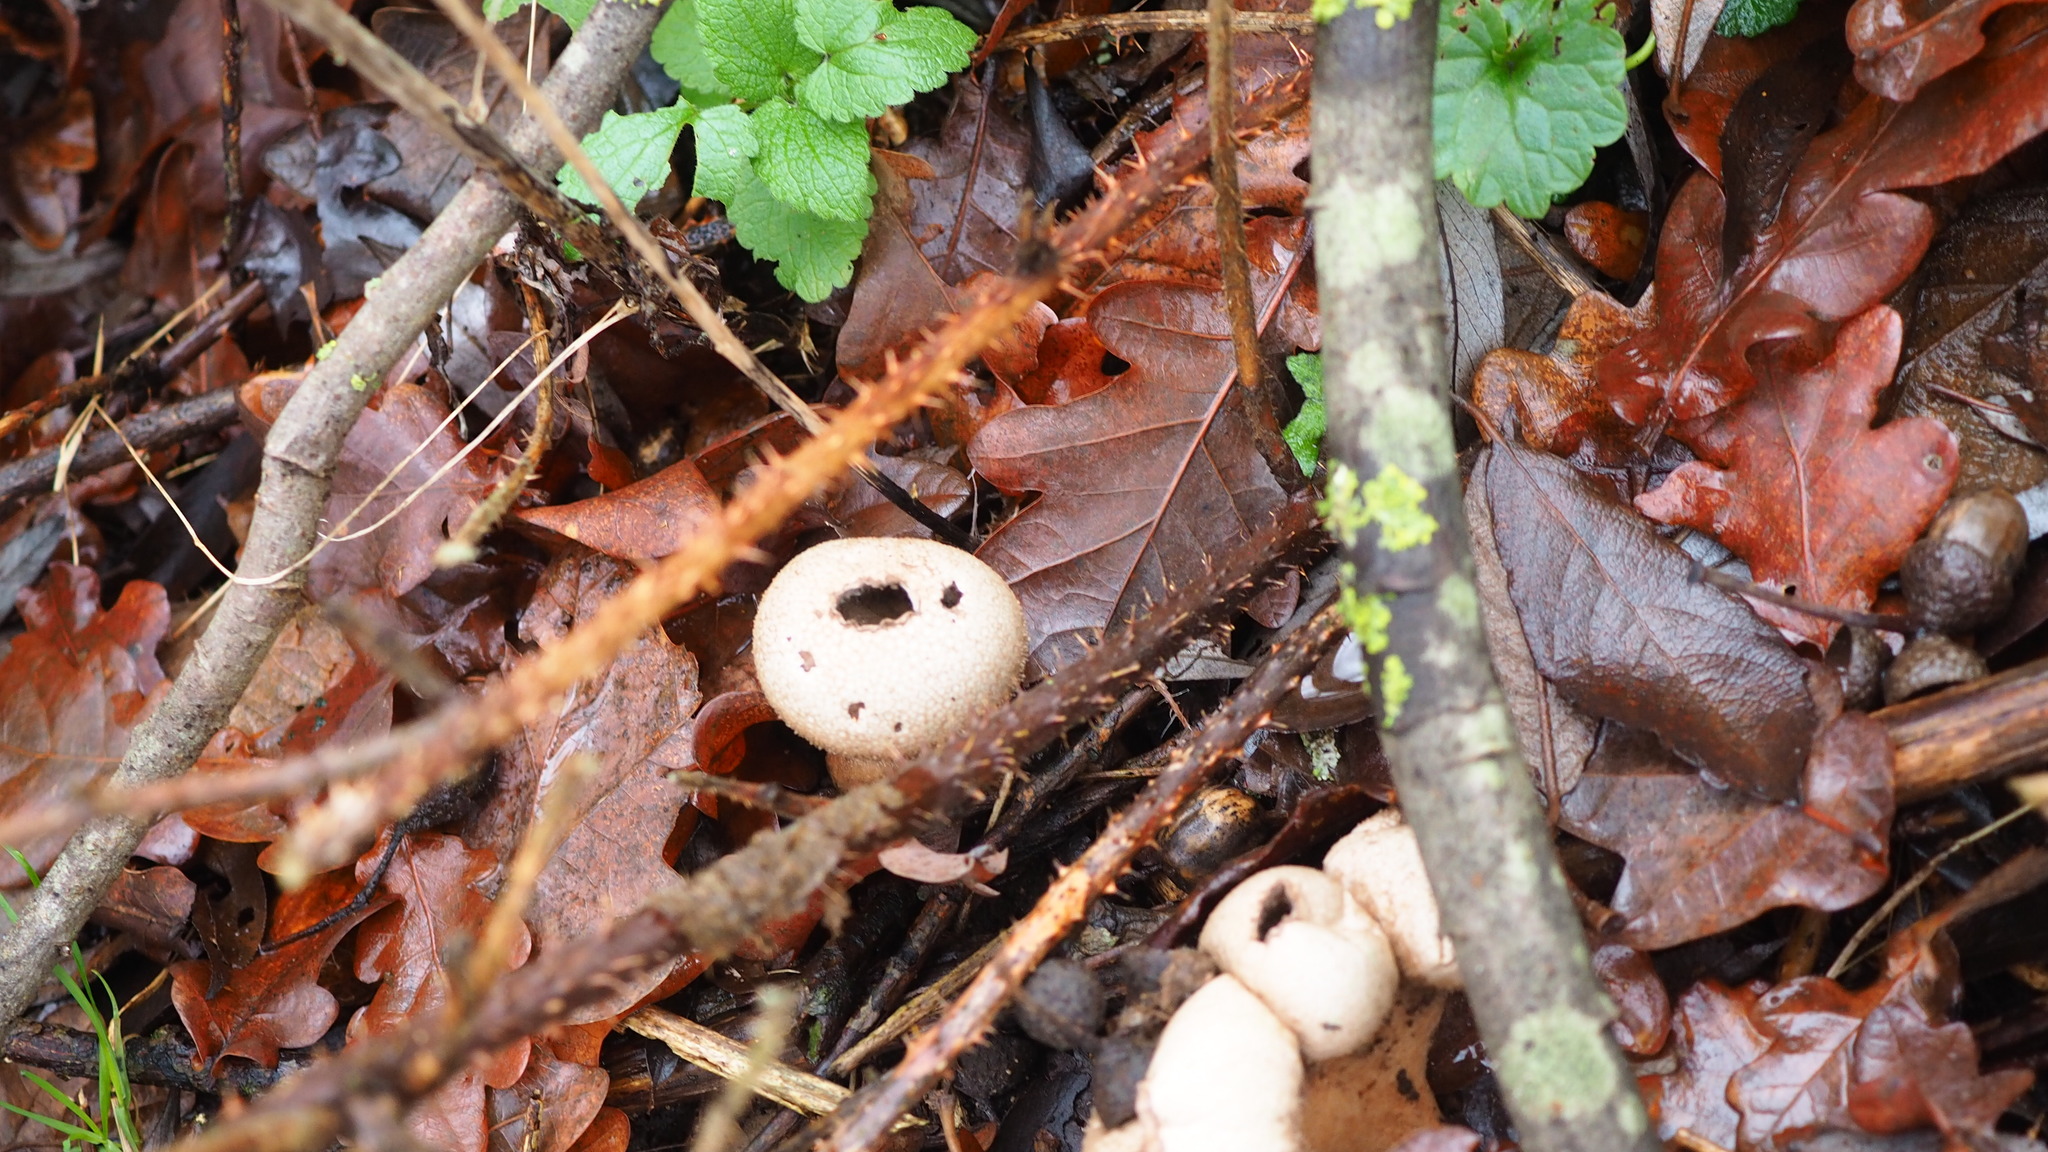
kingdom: Fungi
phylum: Basidiomycota
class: Agaricomycetes
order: Agaricales
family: Lycoperdaceae
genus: Lycoperdon
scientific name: Lycoperdon perlatum
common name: Common puffball
